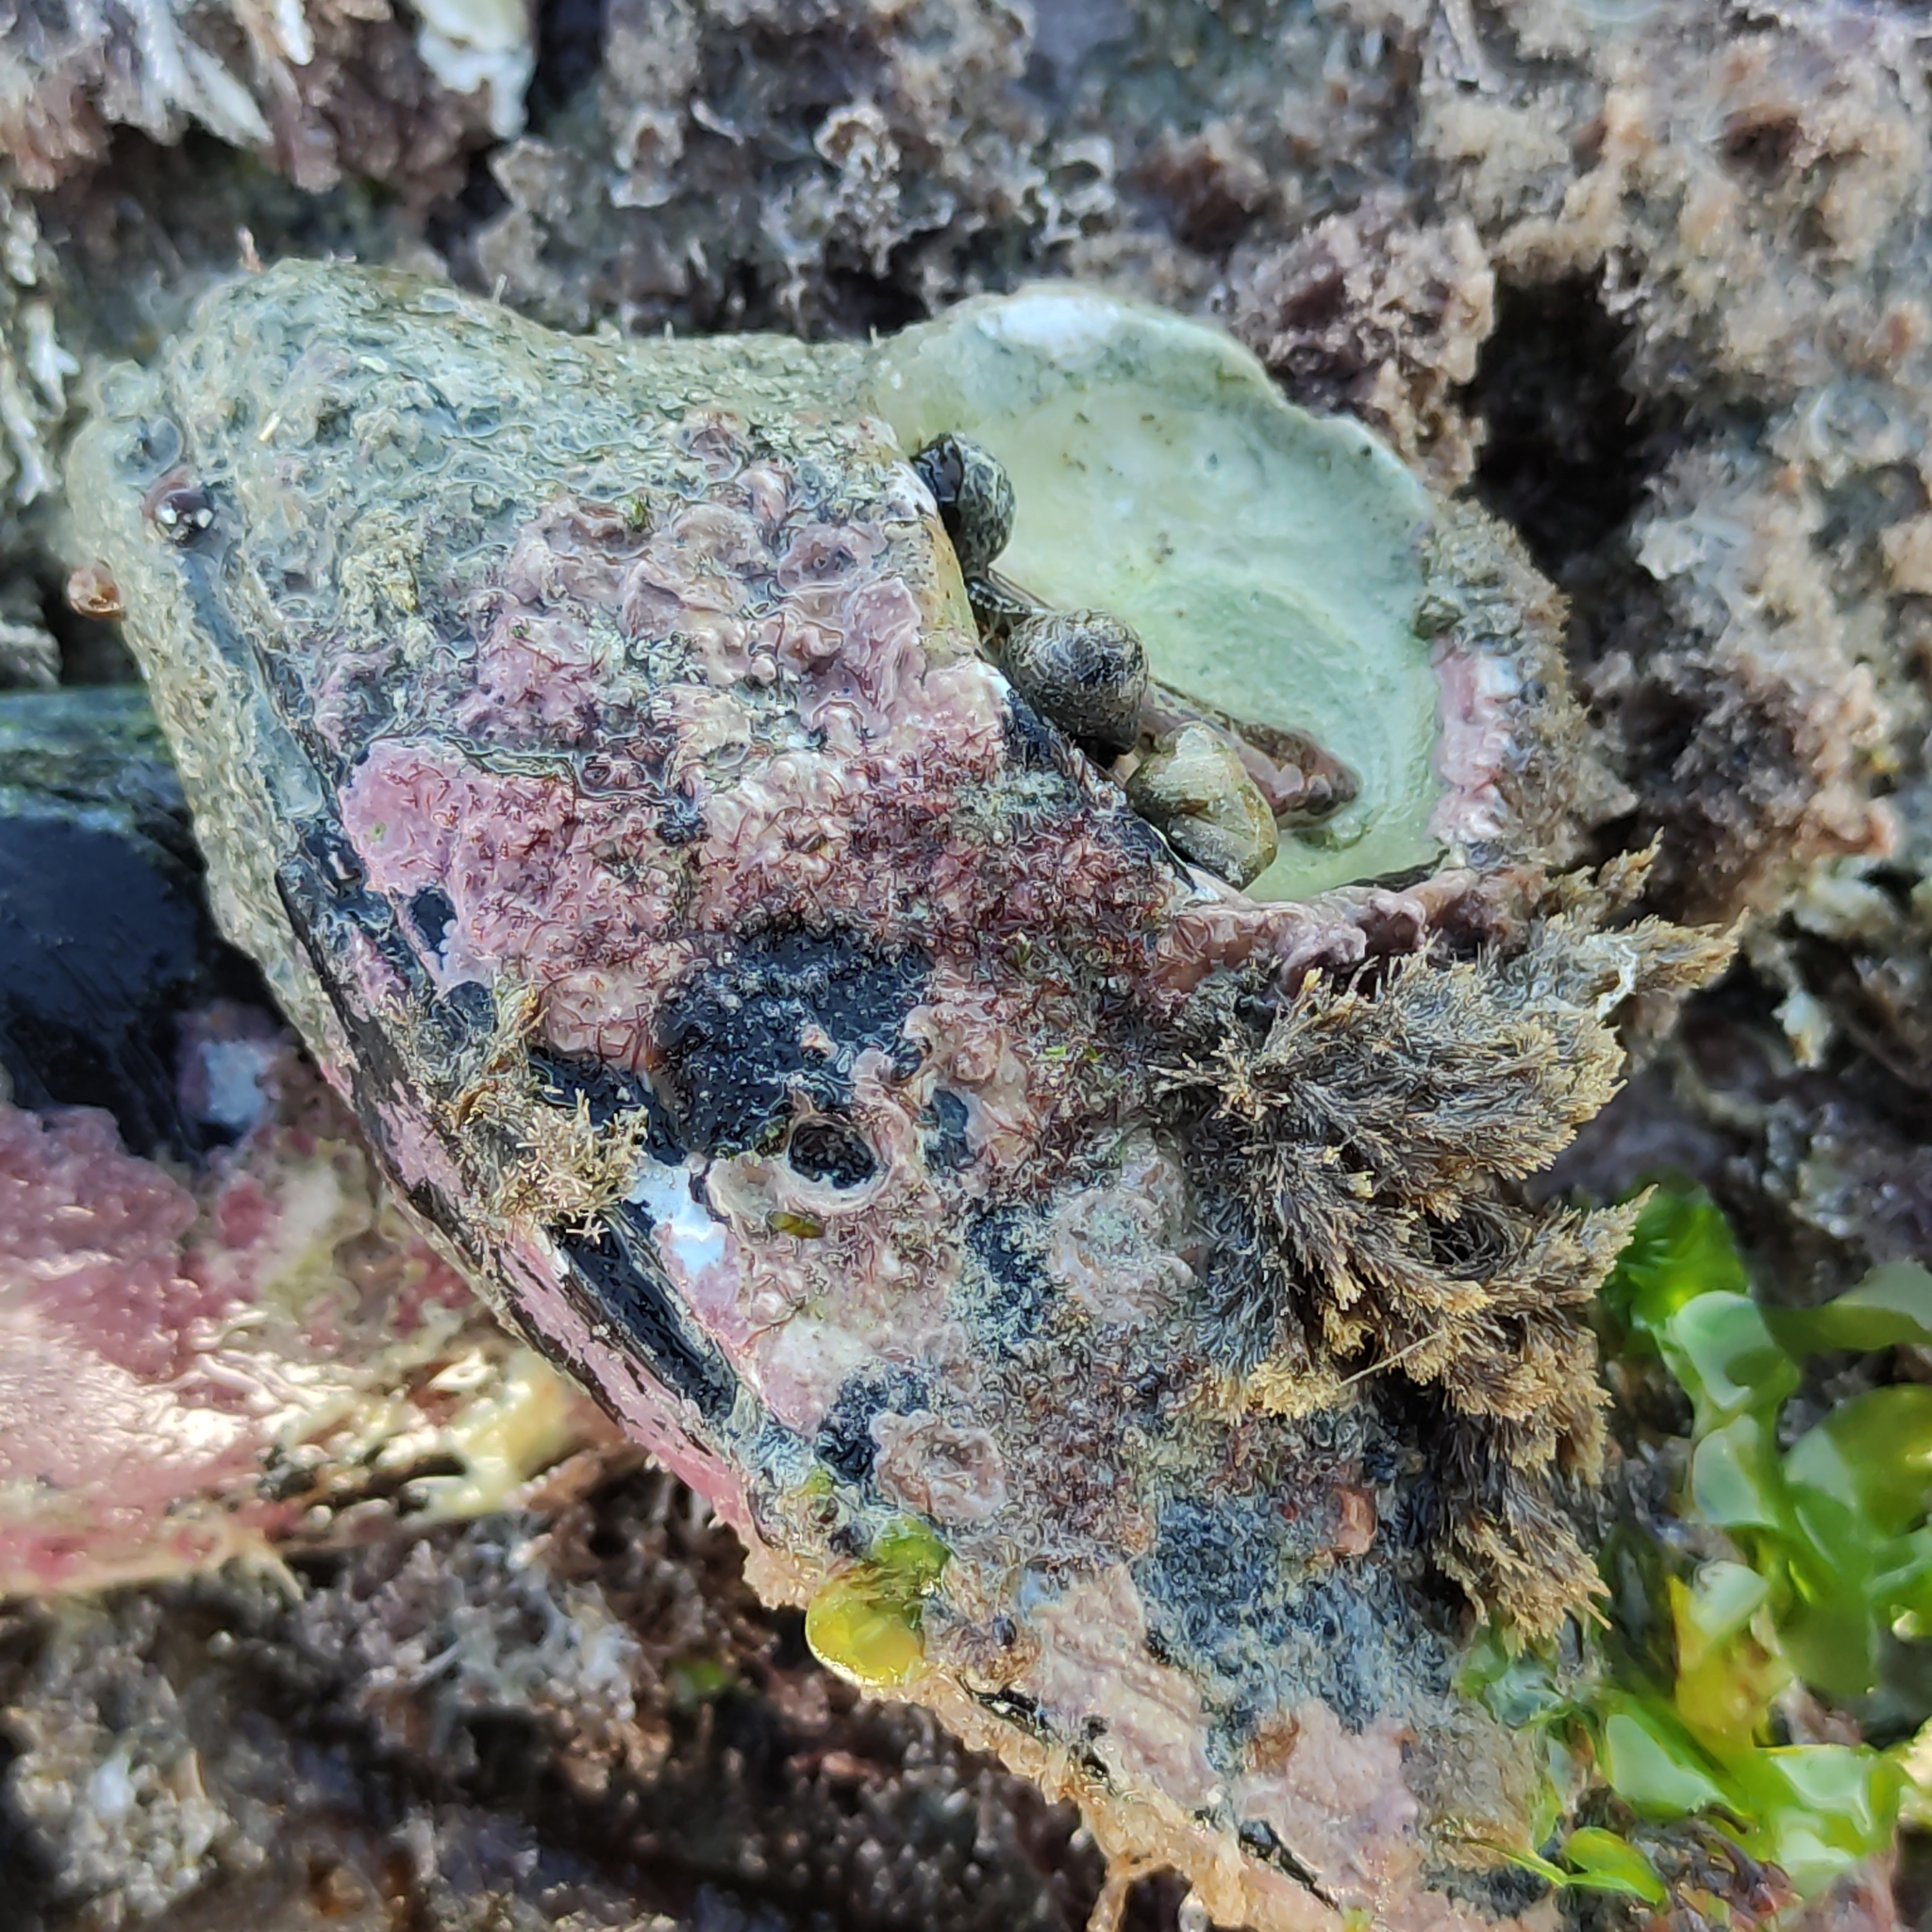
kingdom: Animalia
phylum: Mollusca
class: Bivalvia
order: Mytilida
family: Mytilidae
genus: Perna
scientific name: Perna canaliculus
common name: New zealand greenshelltm
